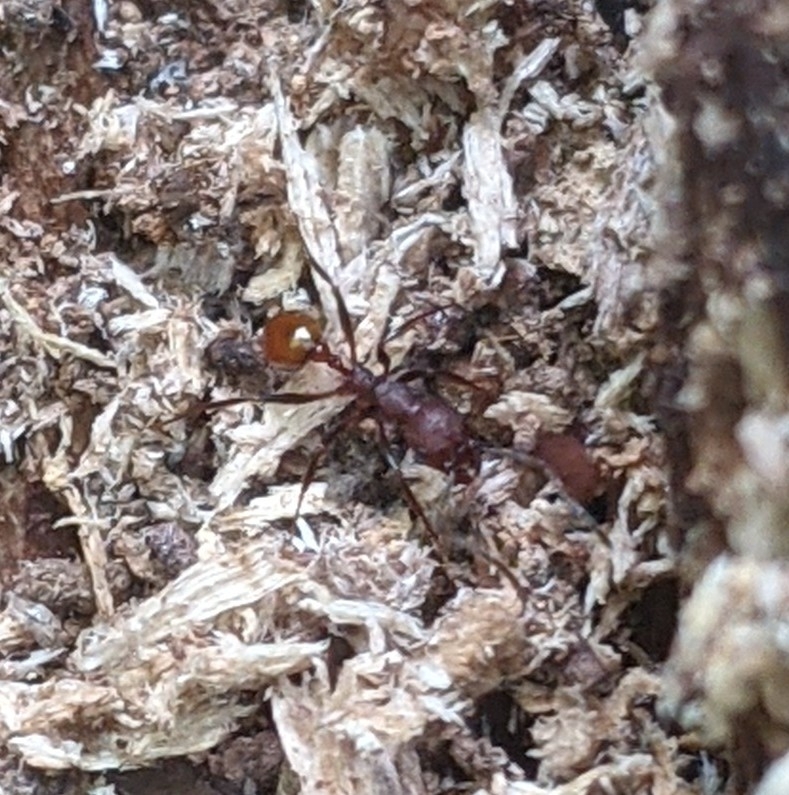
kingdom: Animalia
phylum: Arthropoda
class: Insecta
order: Hymenoptera
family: Formicidae
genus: Aphaenogaster
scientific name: Aphaenogaster tennesseensis
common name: Tennessee thread-waisted ant
